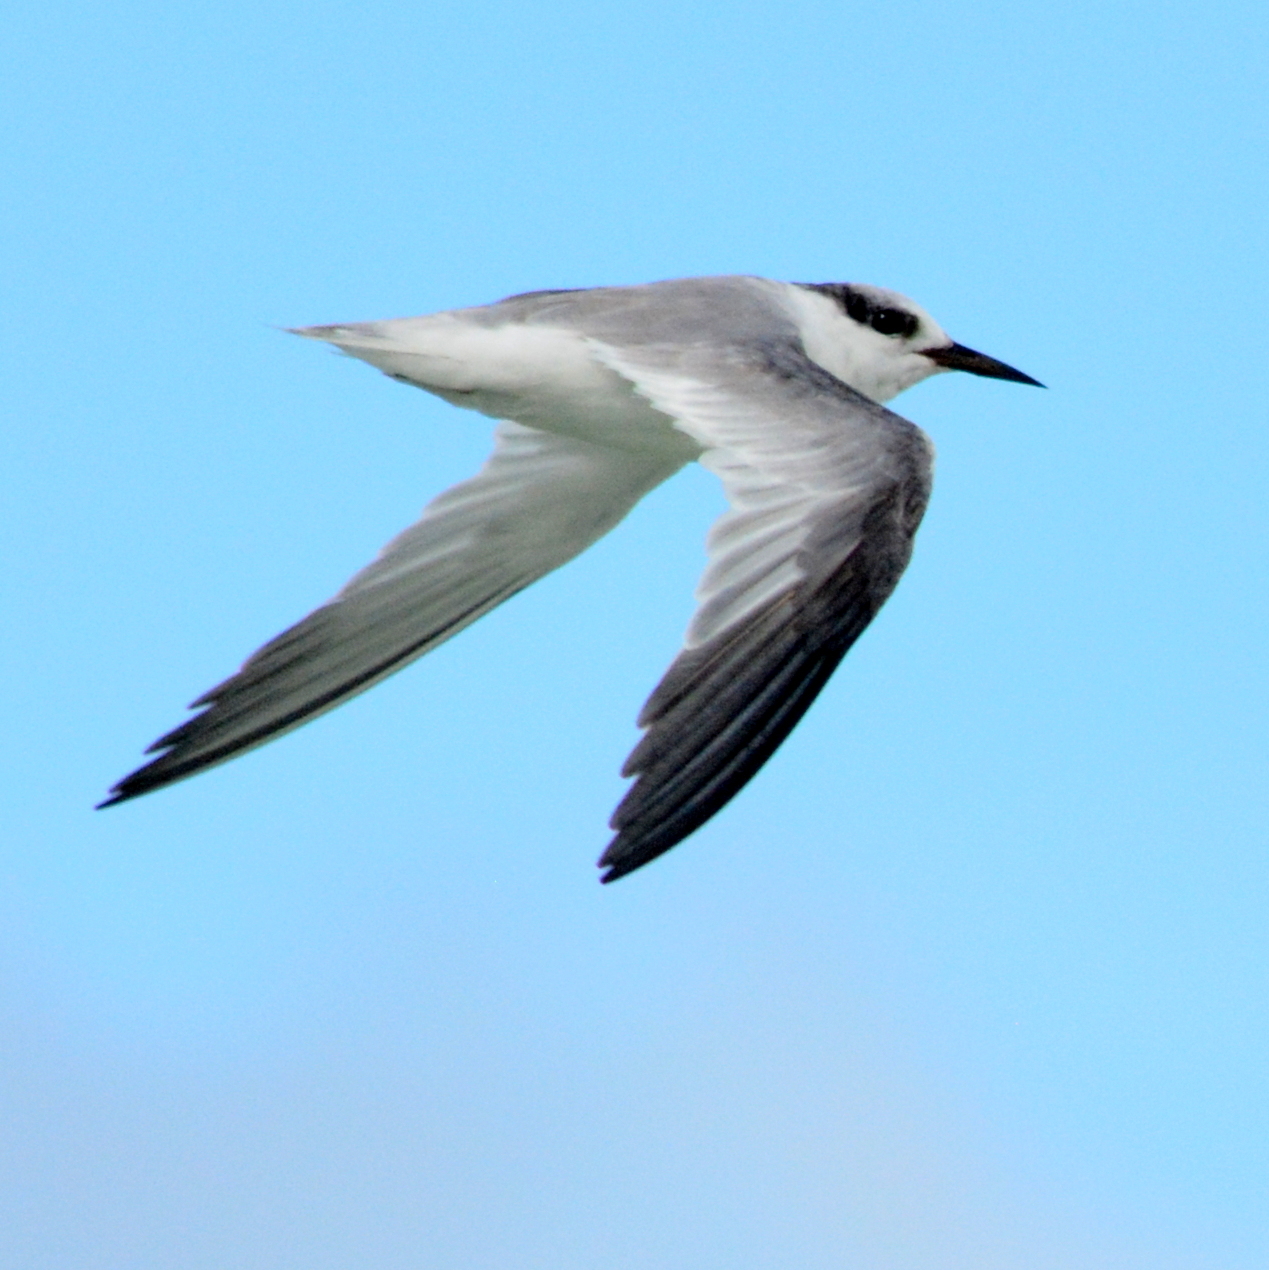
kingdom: Animalia
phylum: Chordata
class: Aves
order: Charadriiformes
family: Laridae
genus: Sternula
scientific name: Sternula antillarum
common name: Least tern
